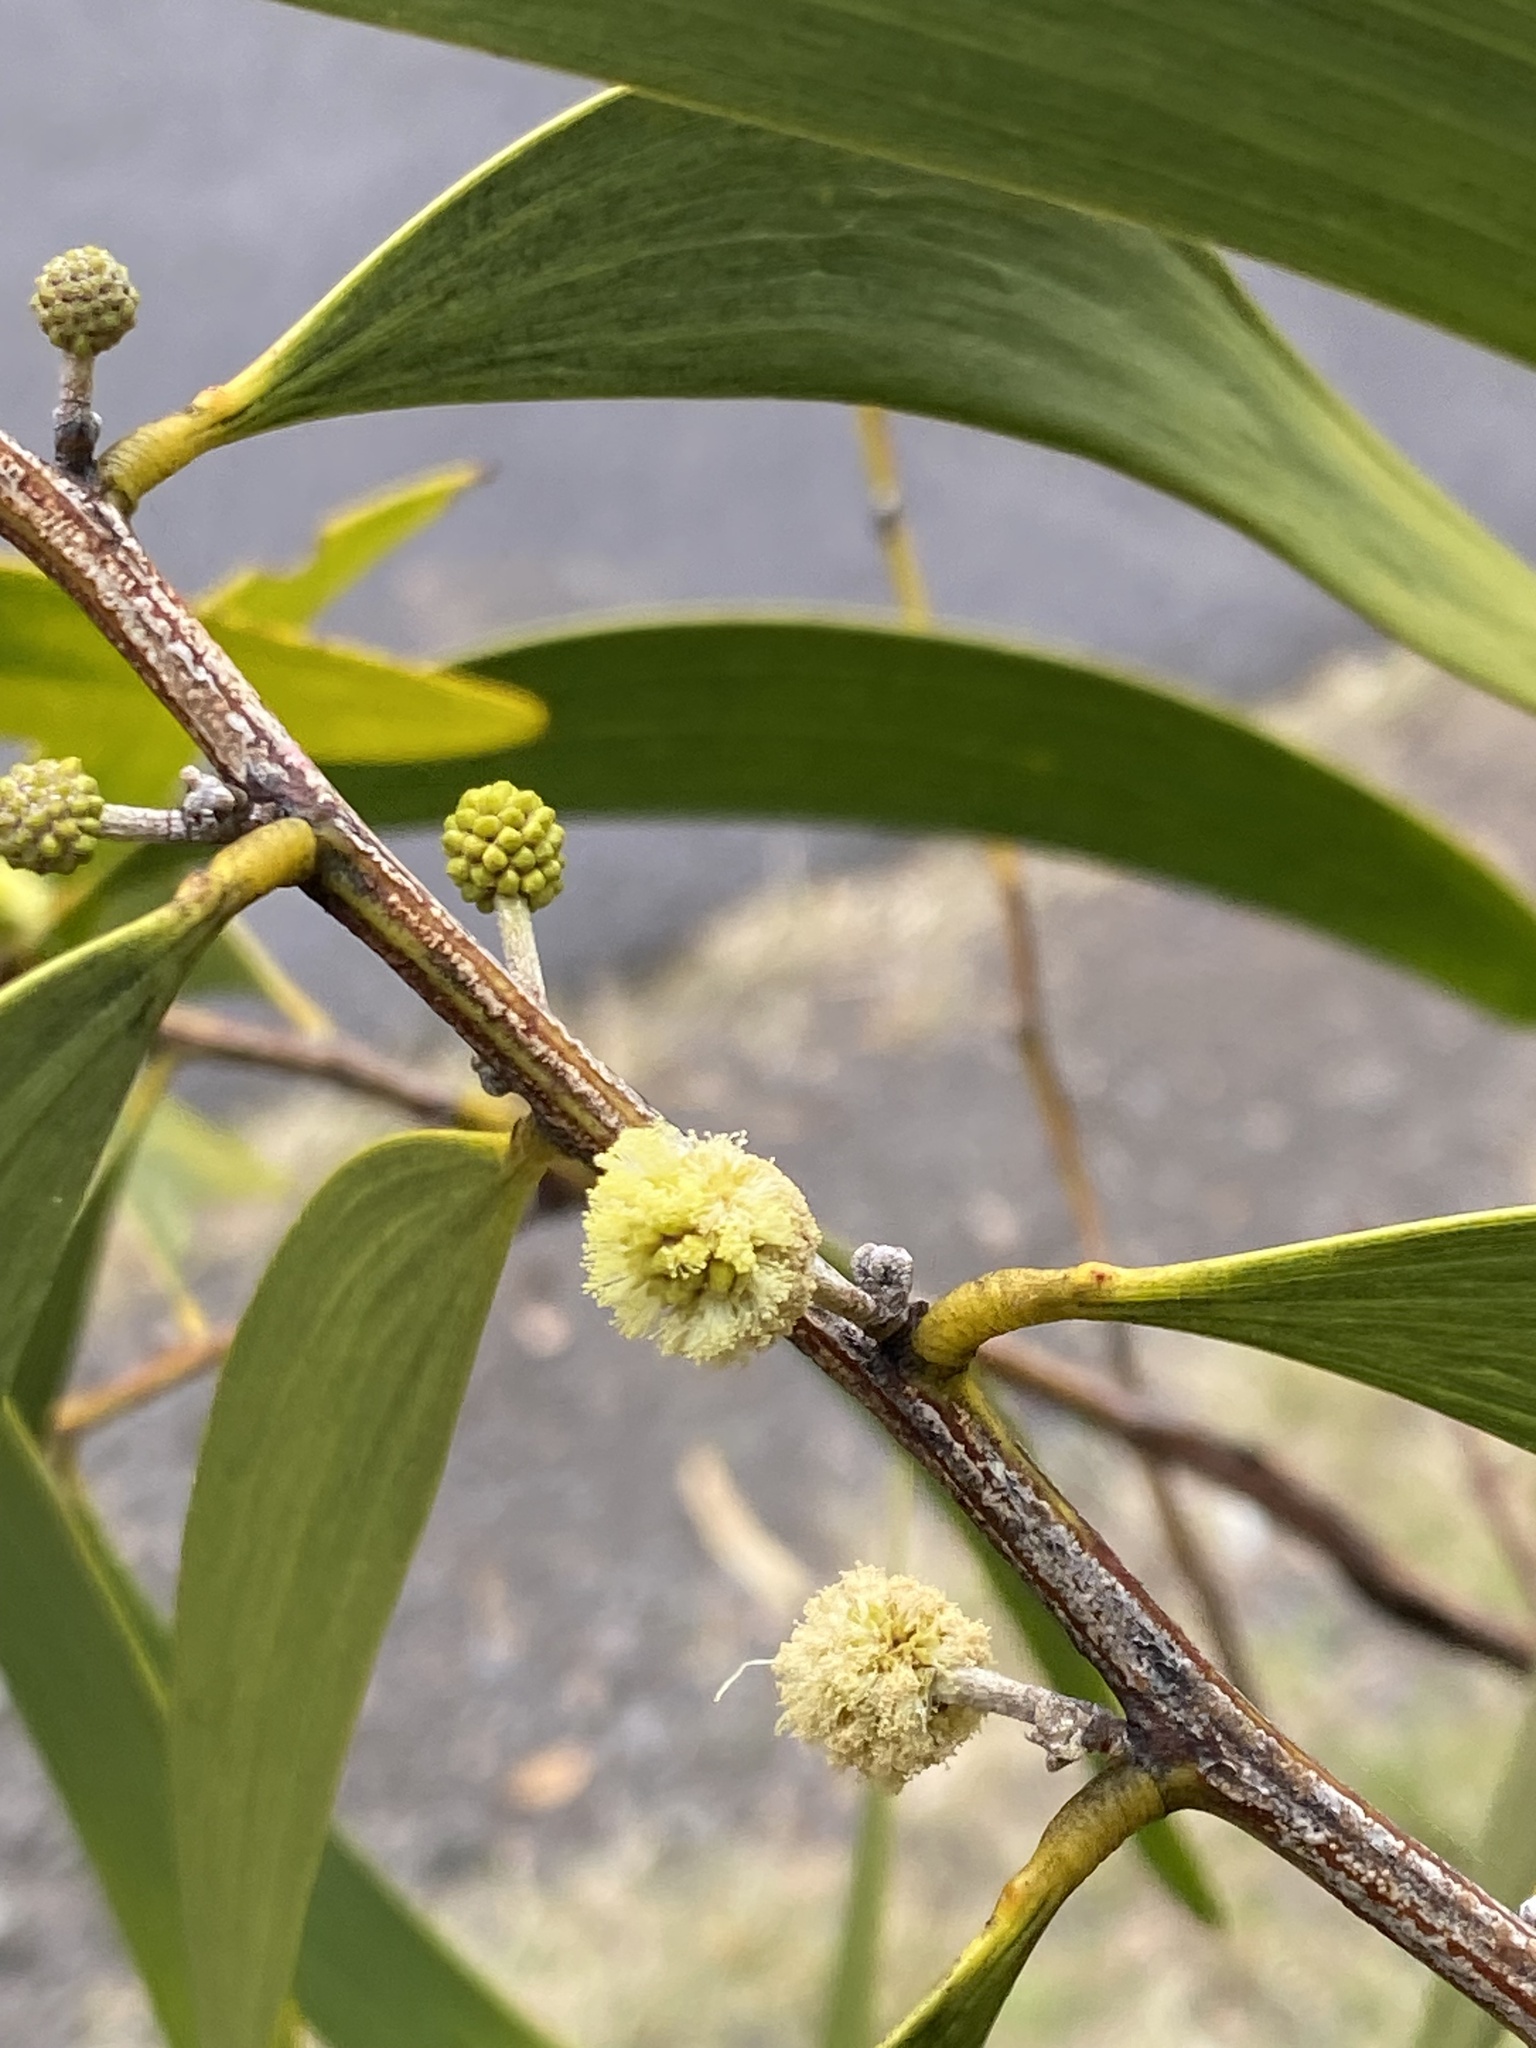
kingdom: Plantae
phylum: Tracheophyta
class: Magnoliopsida
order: Fabales
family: Fabaceae
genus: Acacia
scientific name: Acacia koa
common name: Gray koa
